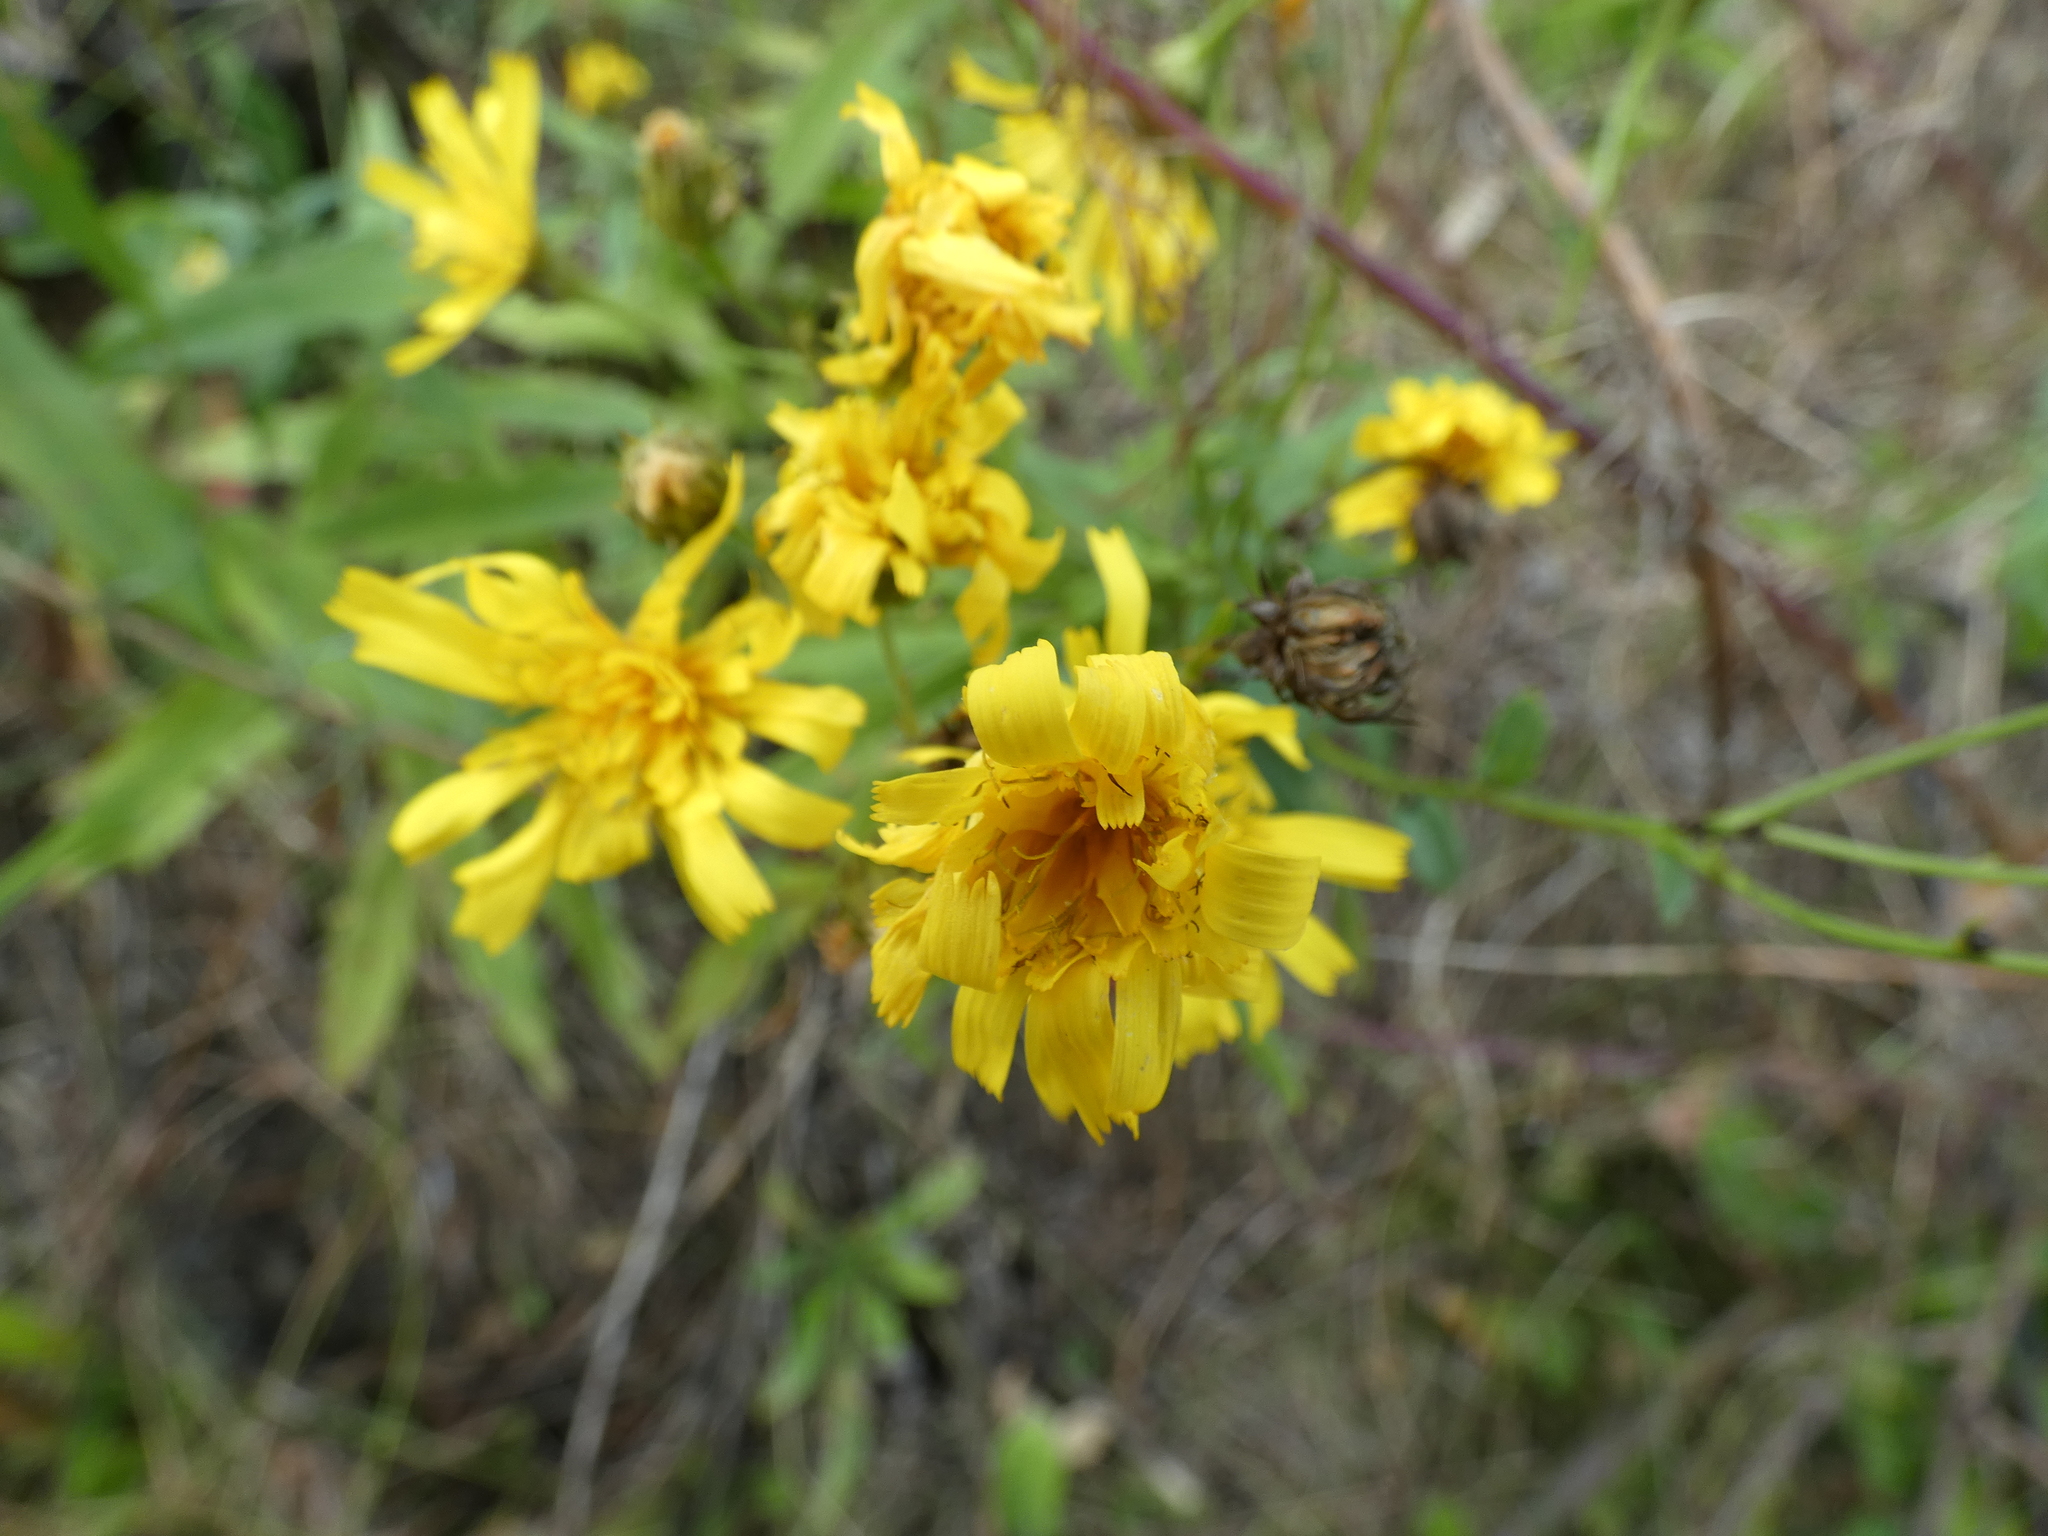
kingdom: Plantae
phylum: Tracheophyta
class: Magnoliopsida
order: Asterales
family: Asteraceae
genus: Hieracium
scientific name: Hieracium umbellatum
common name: Northern hawkweed
